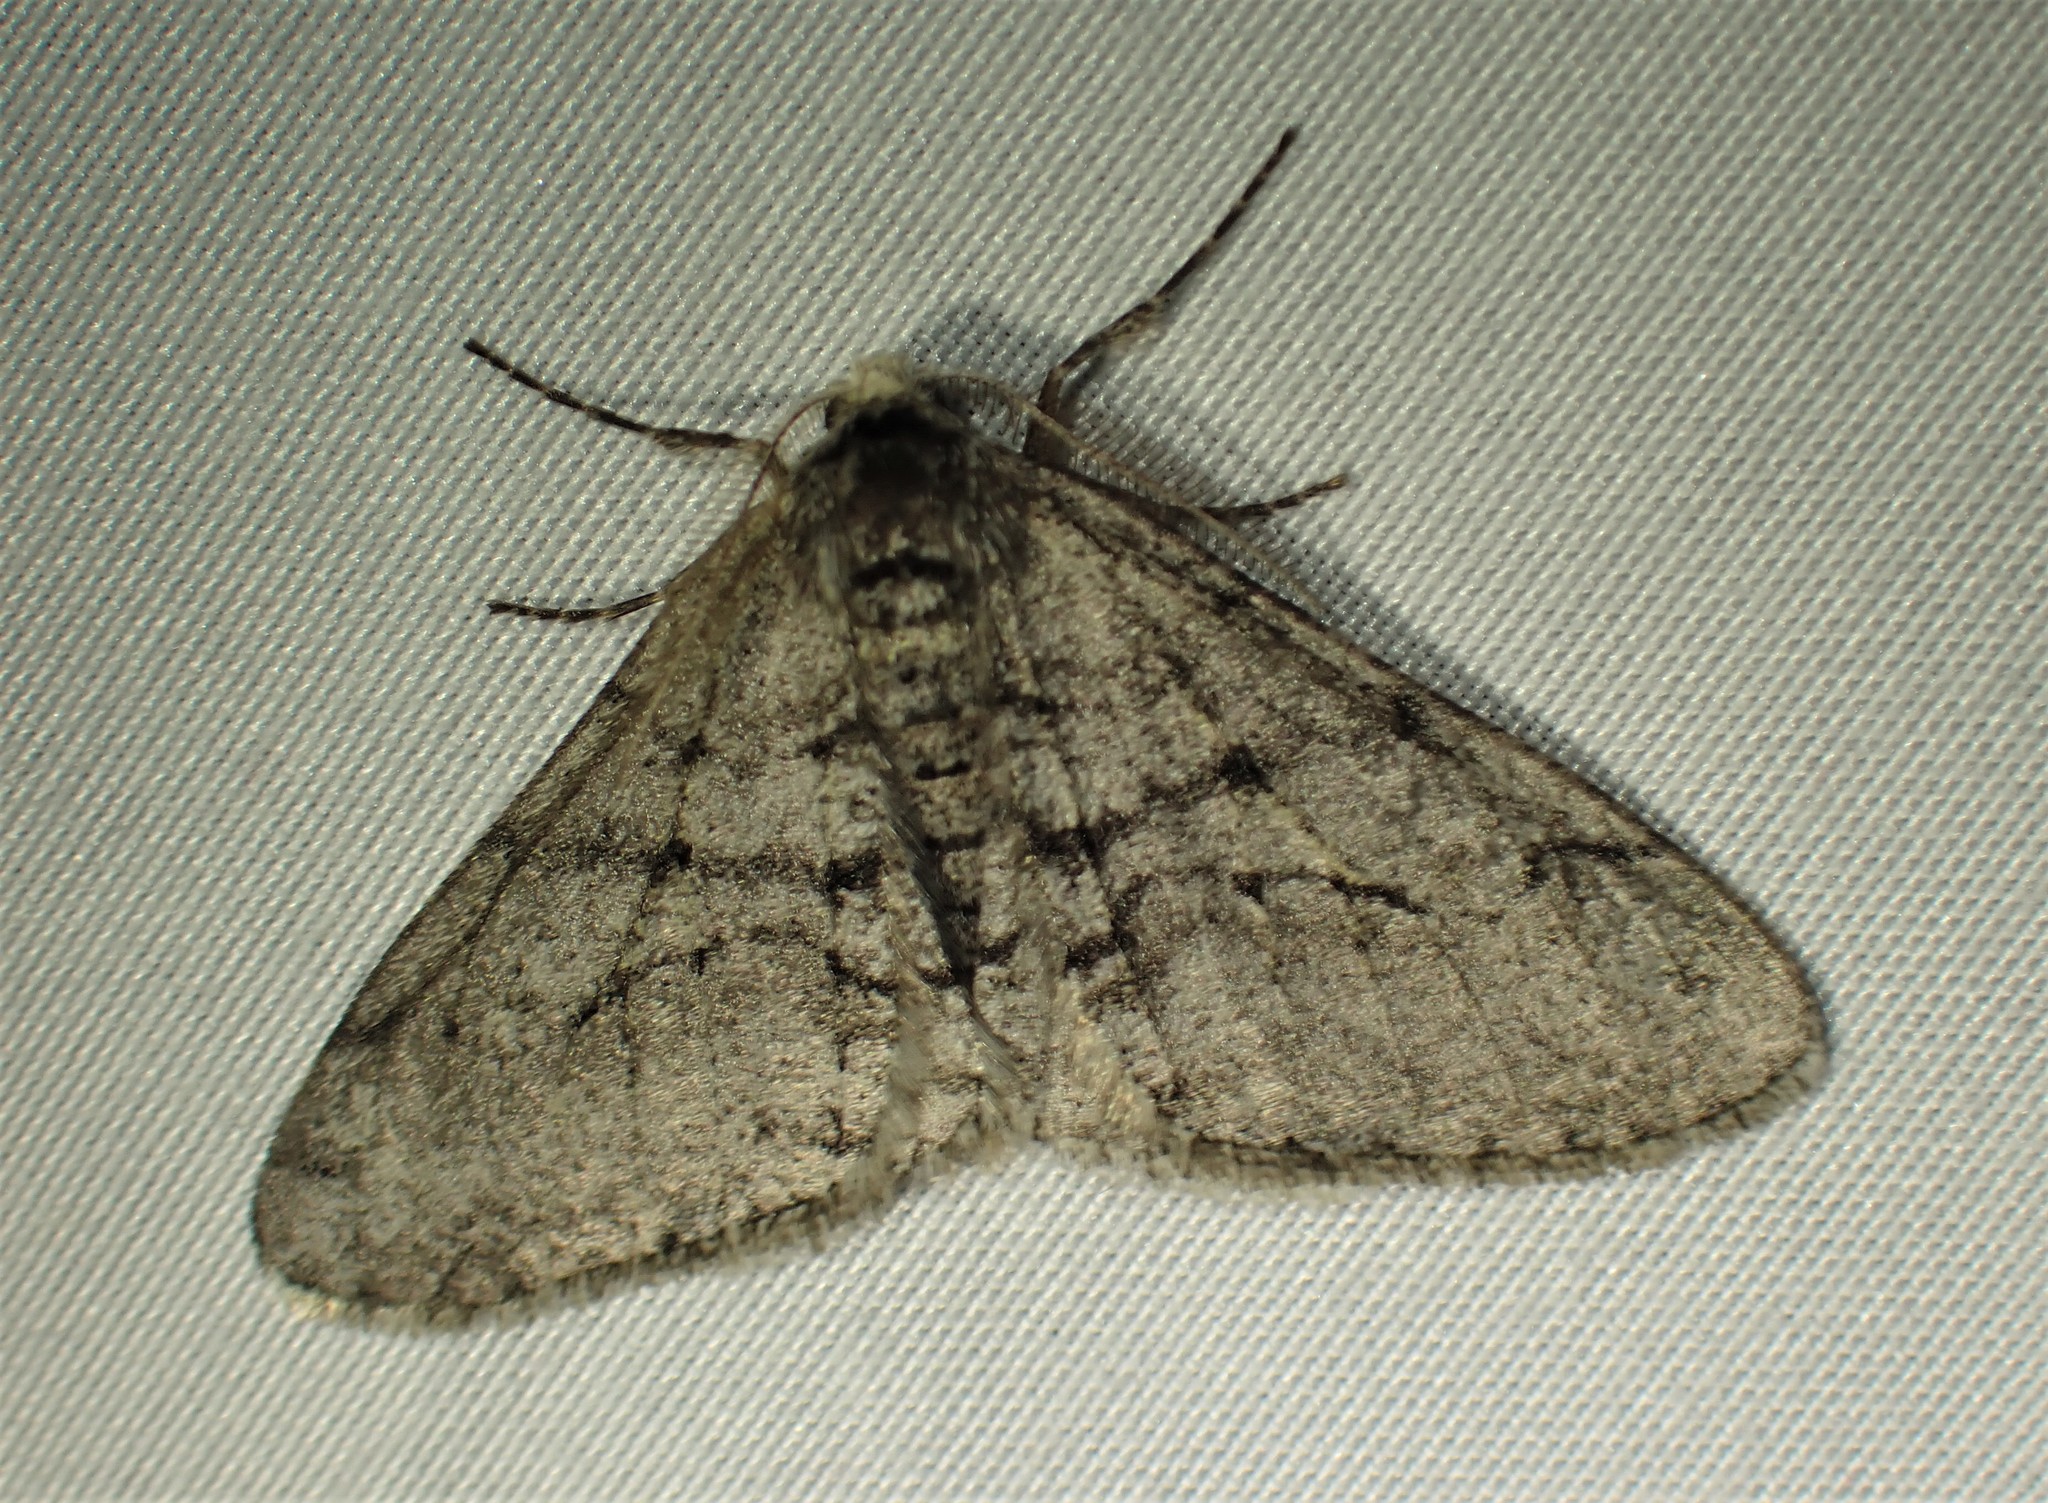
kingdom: Animalia
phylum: Arthropoda
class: Insecta
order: Lepidoptera
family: Geometridae
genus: Phigalia
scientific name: Phigalia titea
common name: Spiny looper
